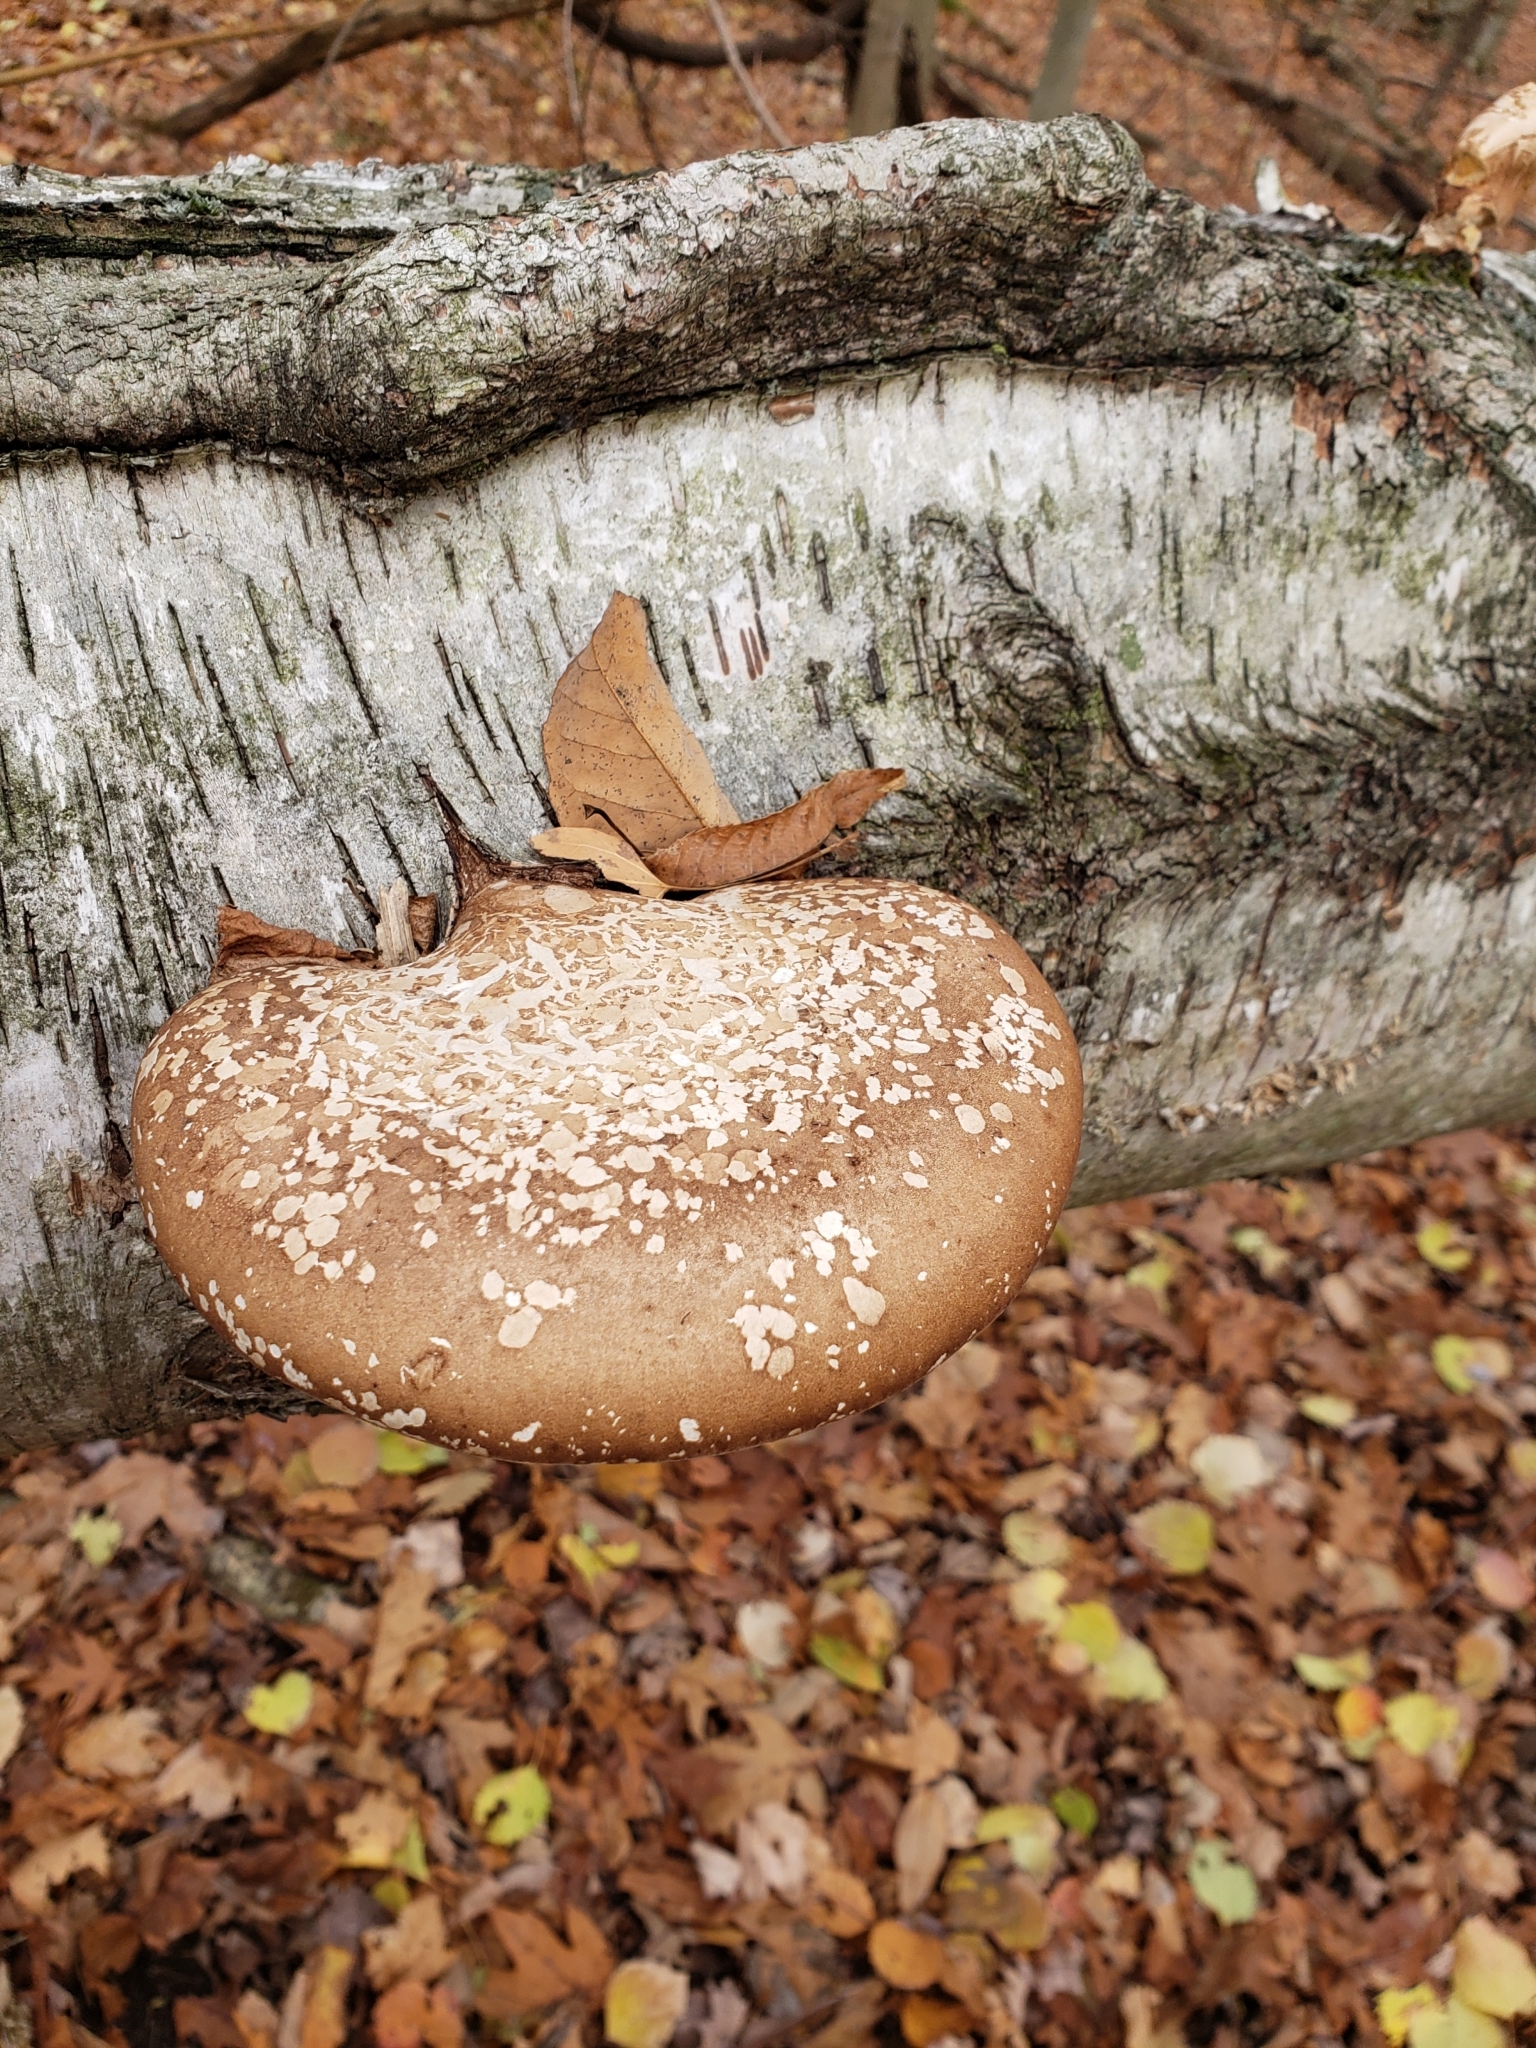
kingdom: Fungi
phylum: Basidiomycota
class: Agaricomycetes
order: Polyporales
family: Fomitopsidaceae
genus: Fomitopsis
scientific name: Fomitopsis betulina
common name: Birch polypore
